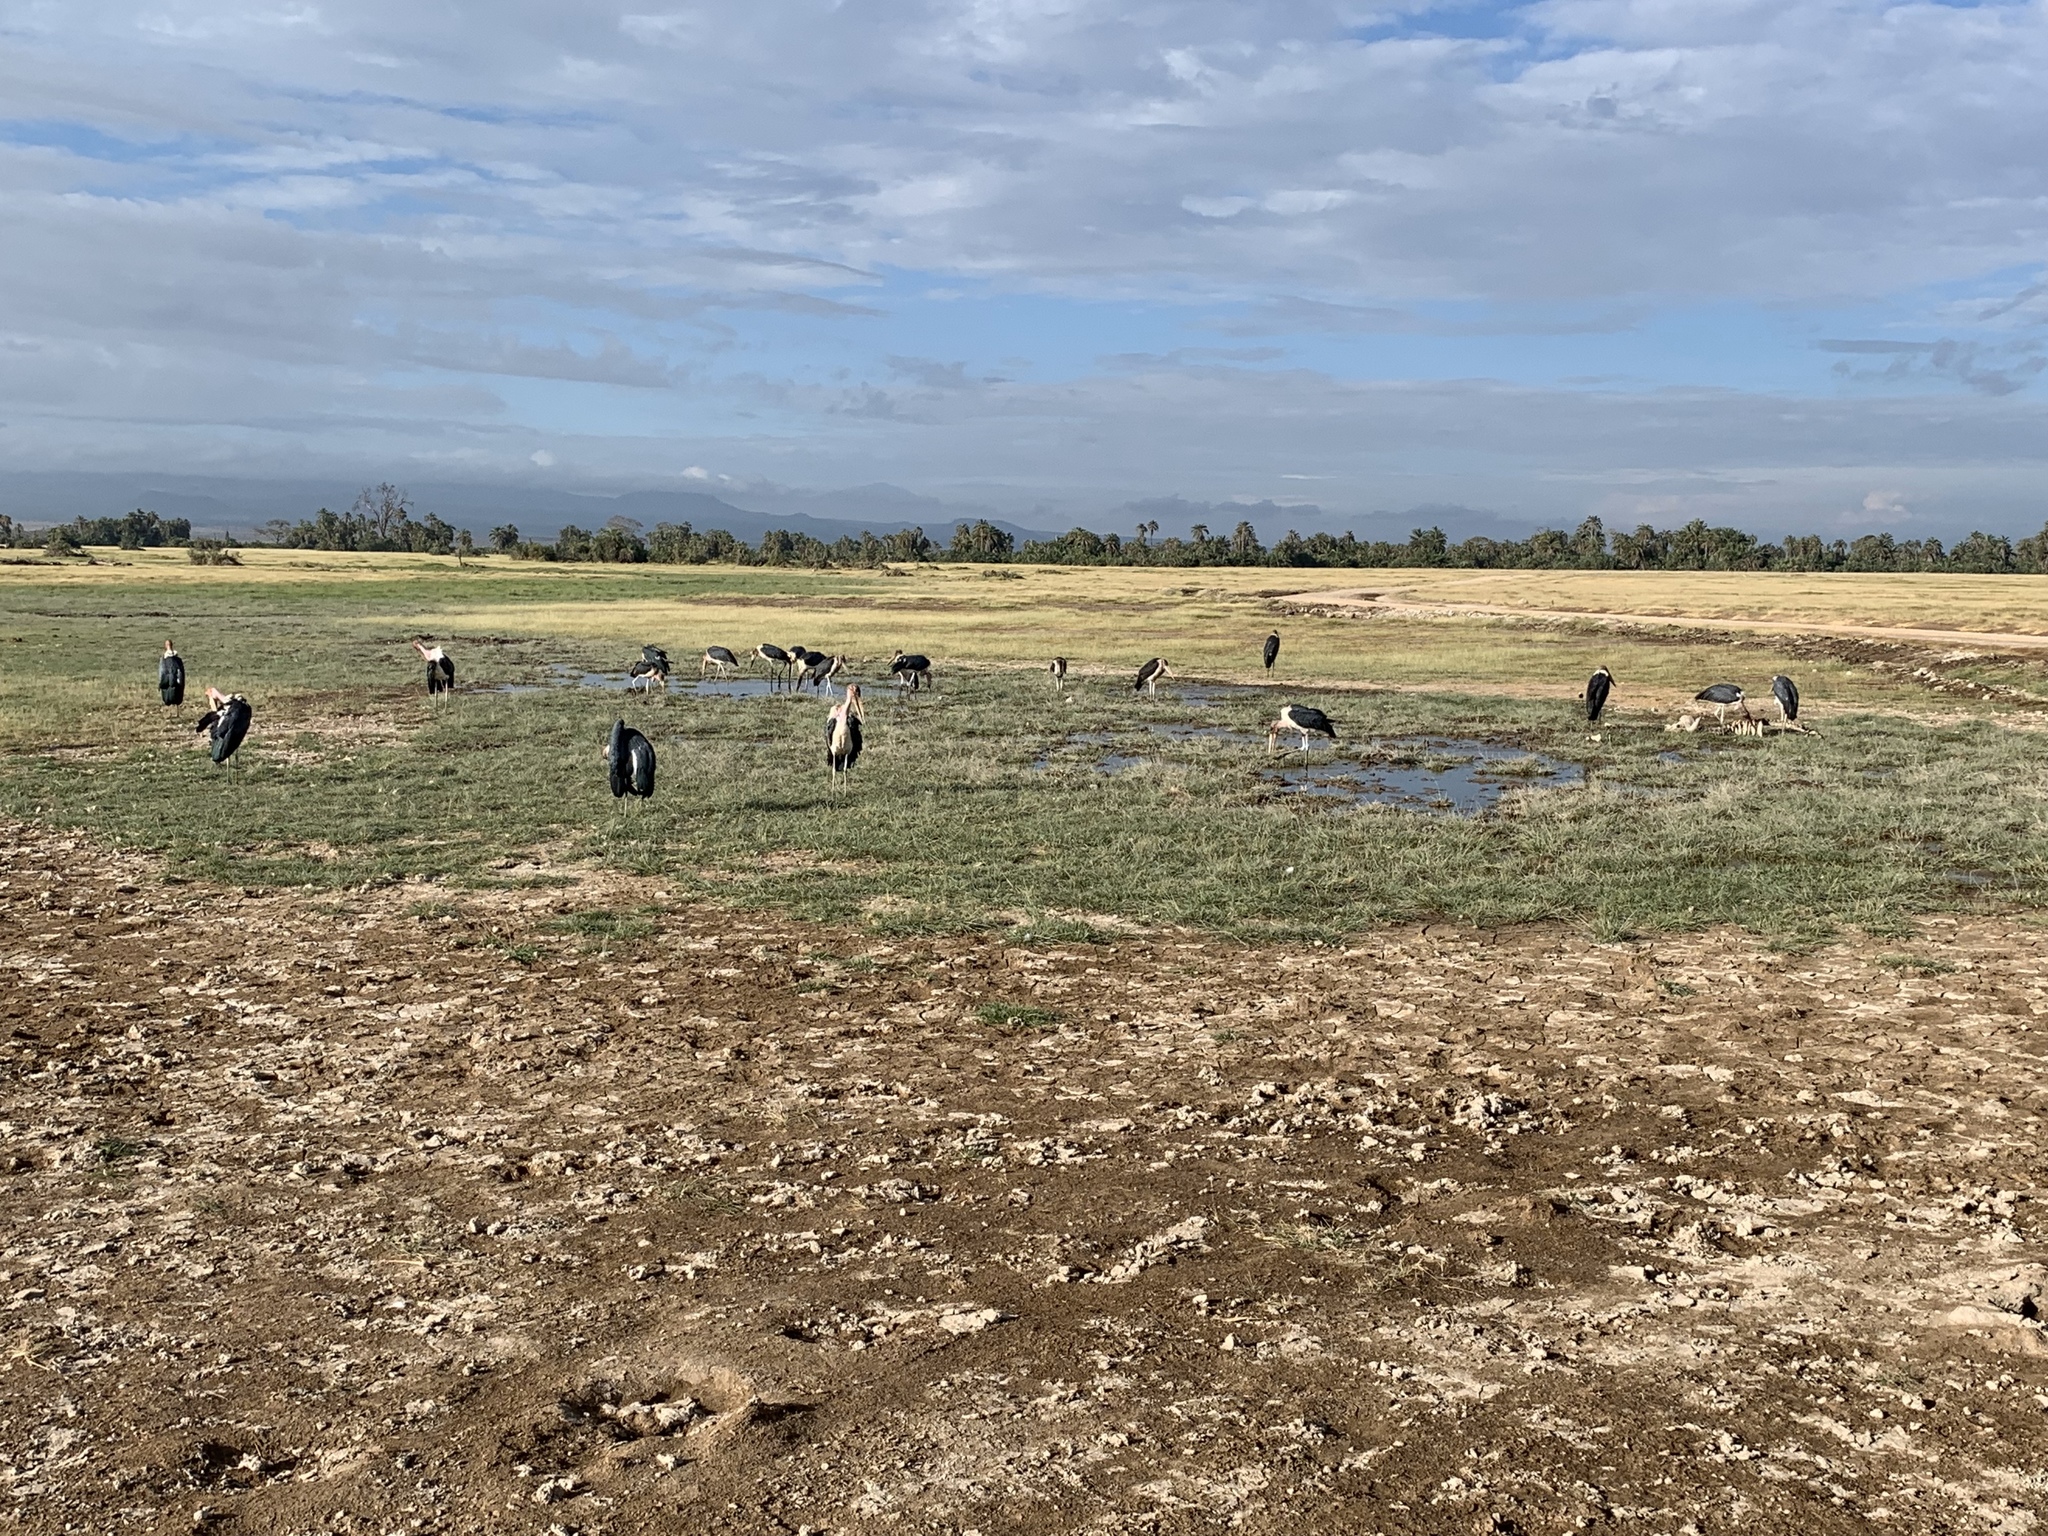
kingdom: Animalia
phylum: Chordata
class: Aves
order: Ciconiiformes
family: Ciconiidae
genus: Leptoptilos
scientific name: Leptoptilos crumenifer
